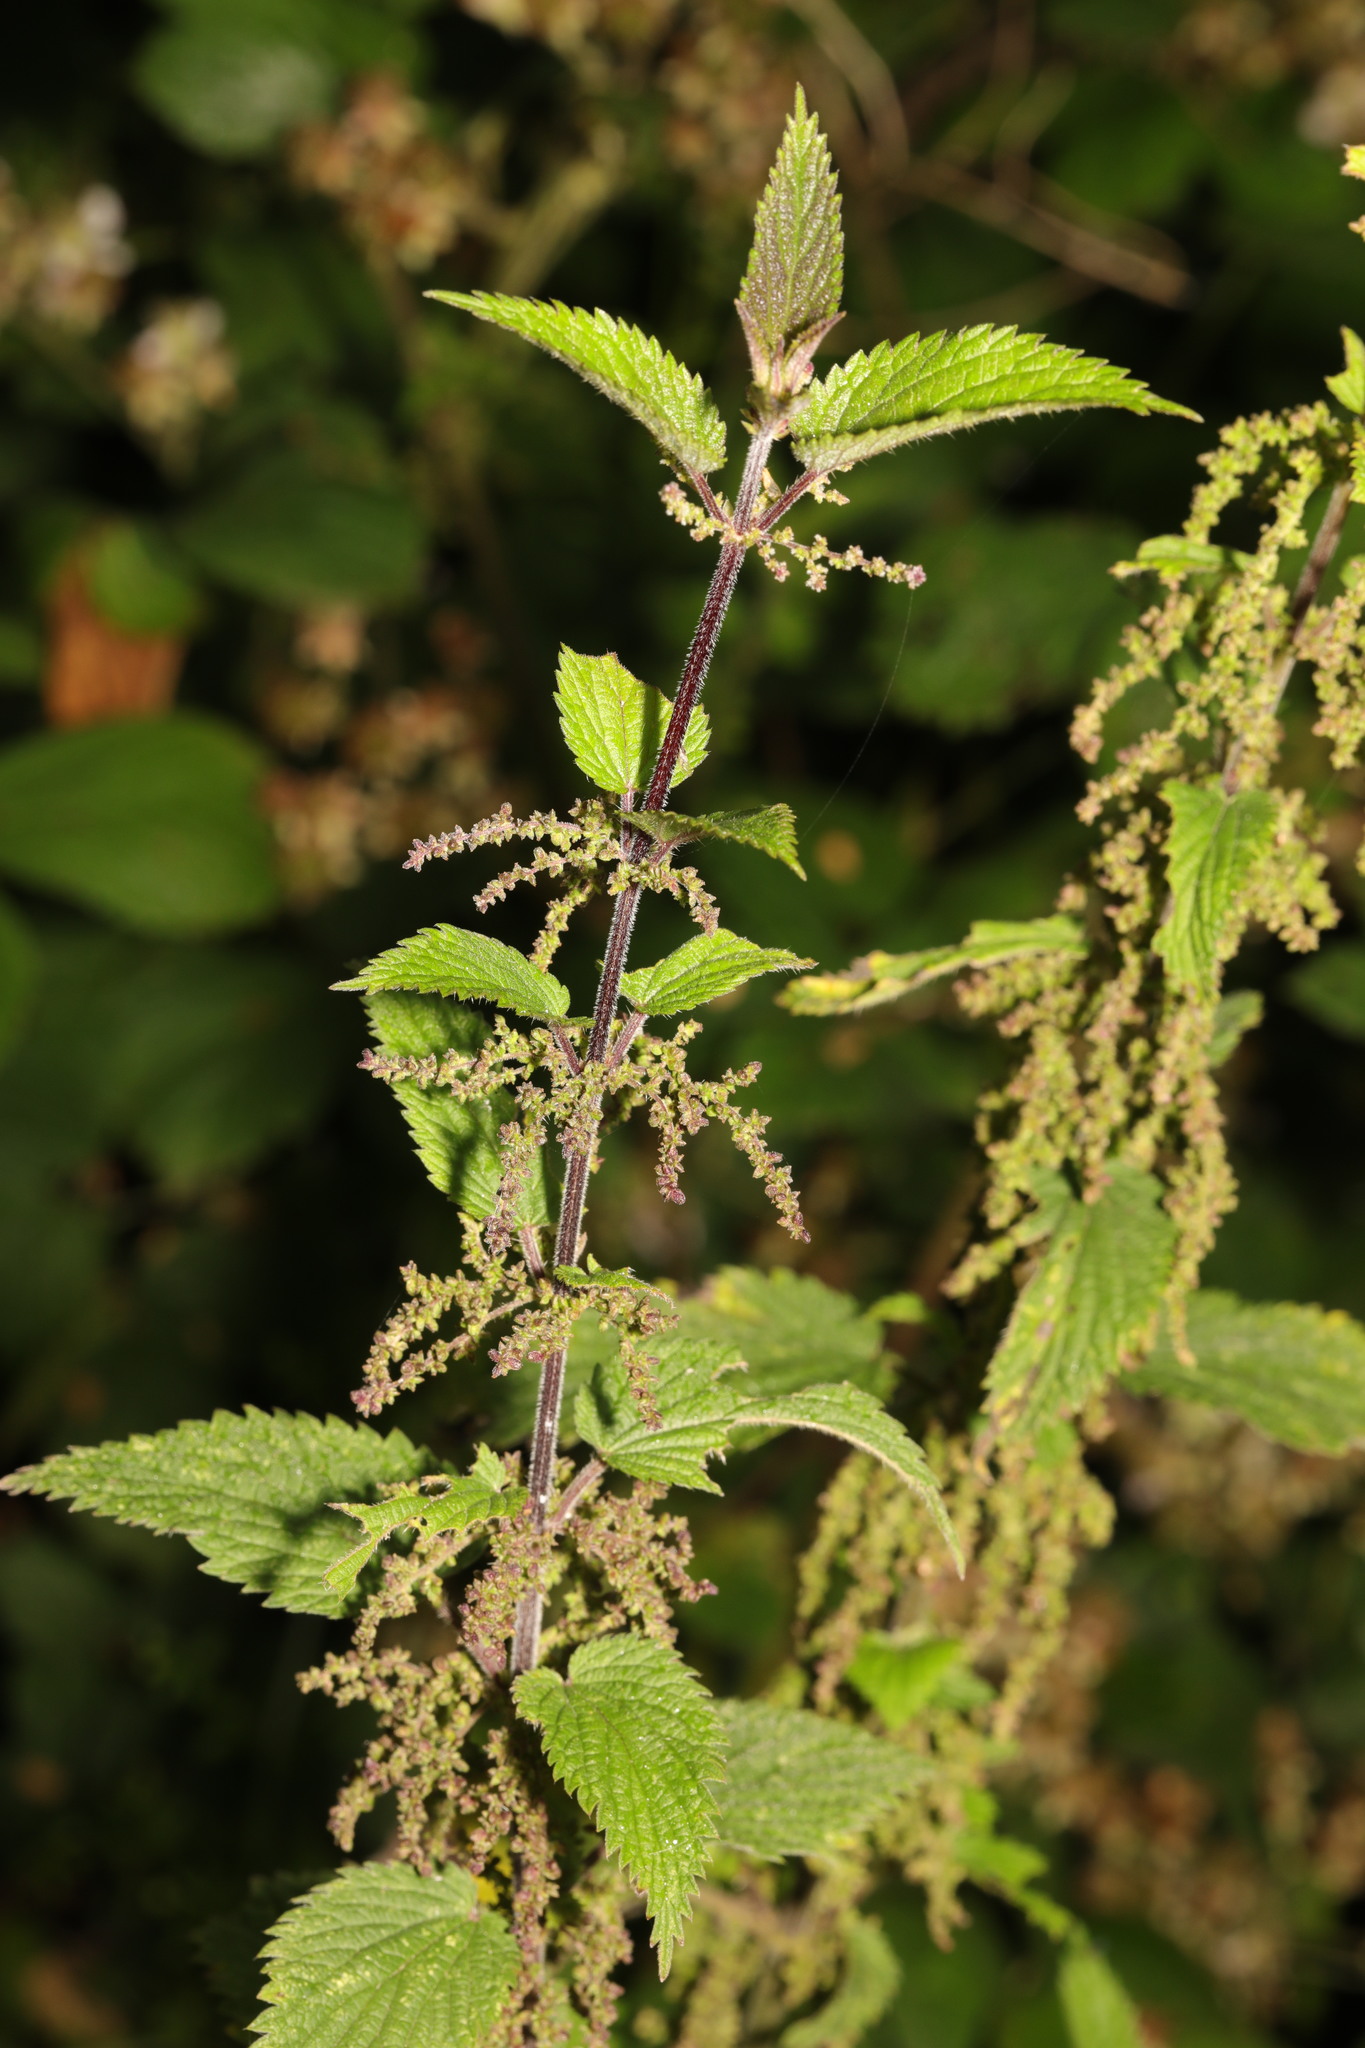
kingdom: Plantae
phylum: Tracheophyta
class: Magnoliopsida
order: Rosales
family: Urticaceae
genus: Urtica
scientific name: Urtica dioica
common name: Common nettle
